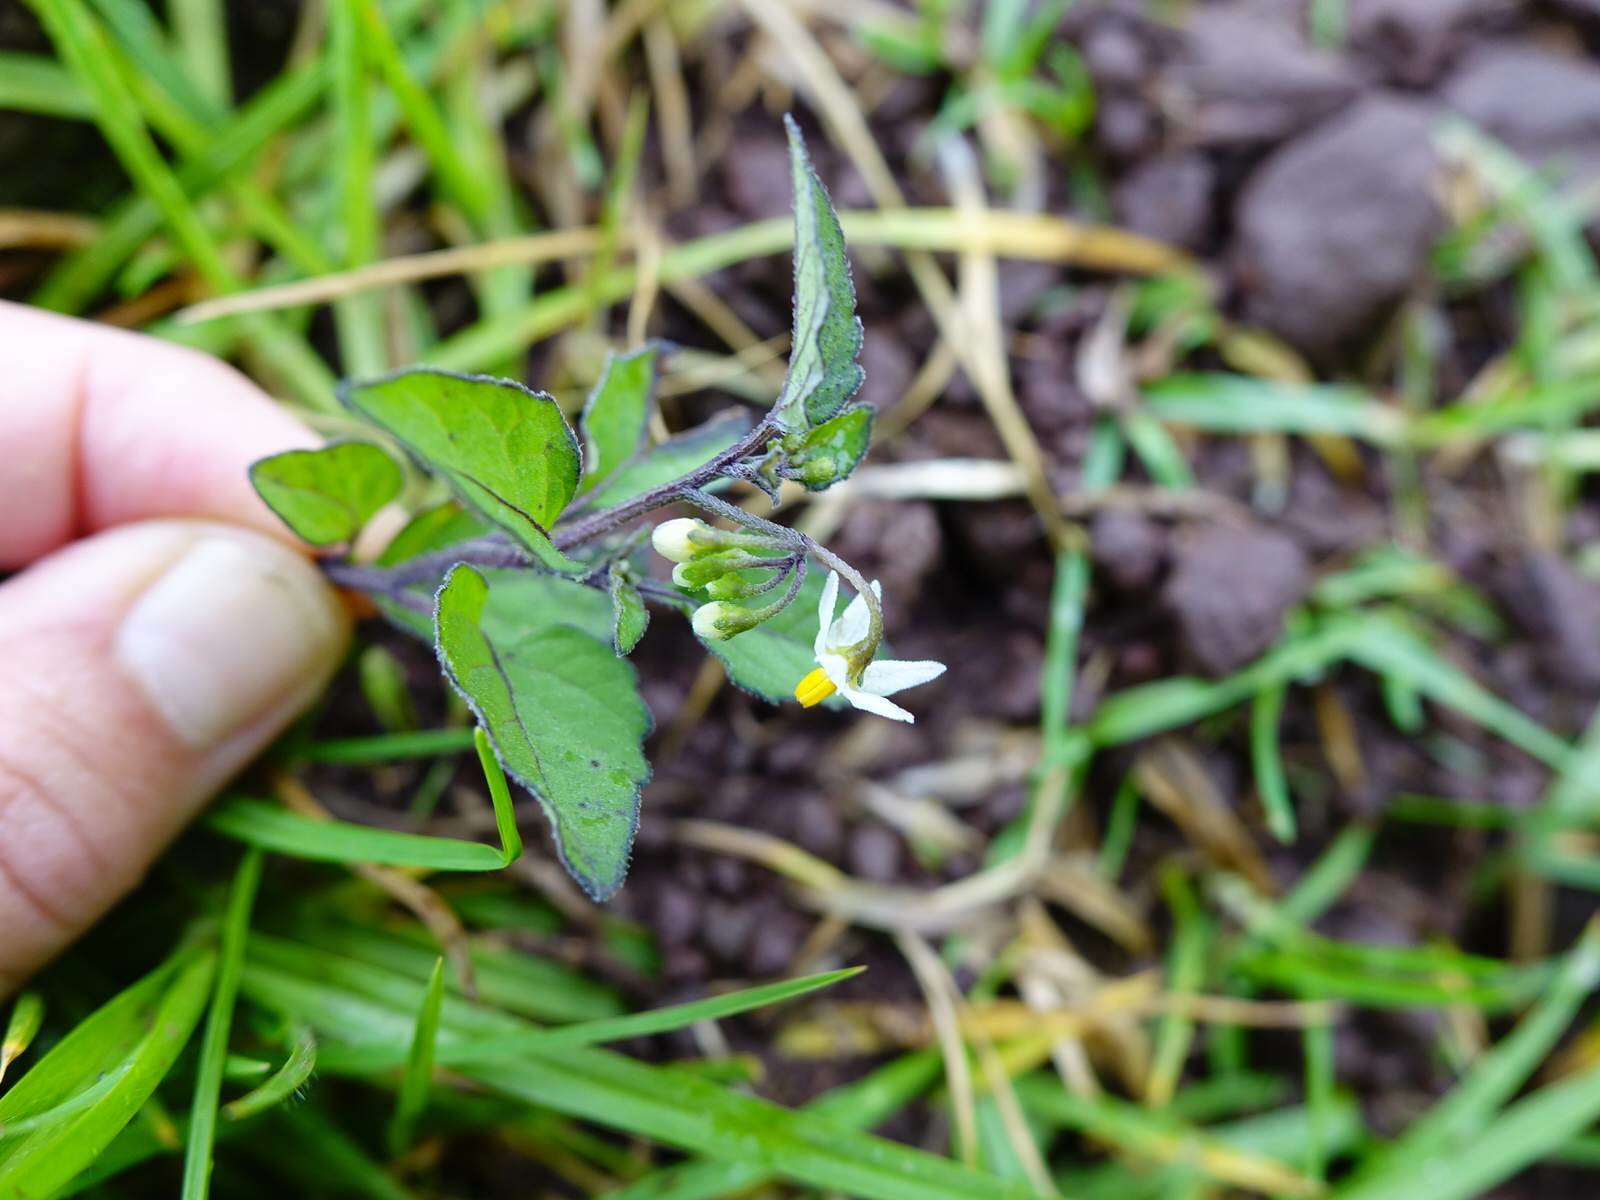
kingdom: Plantae
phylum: Tracheophyta
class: Magnoliopsida
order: Solanales
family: Solanaceae
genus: Solanum
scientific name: Solanum nigrum
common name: Black nightshade
